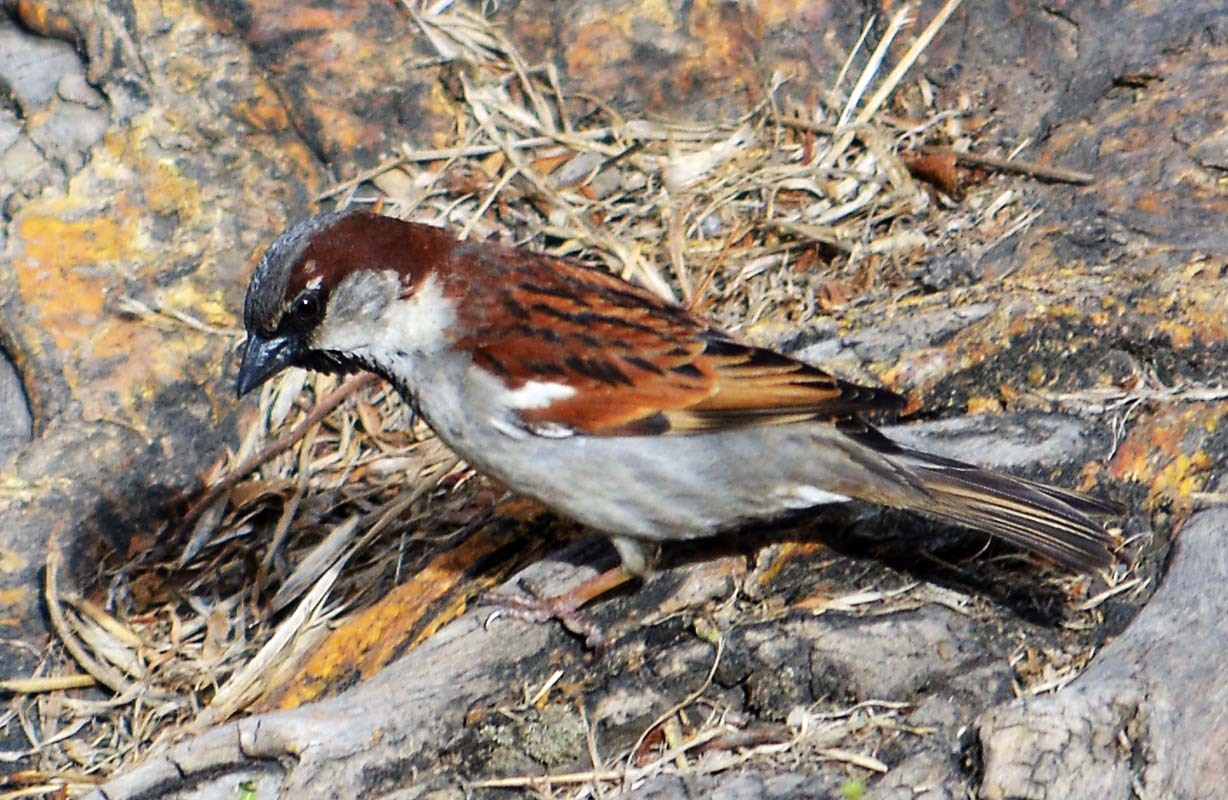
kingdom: Animalia
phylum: Chordata
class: Aves
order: Passeriformes
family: Passeridae
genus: Passer
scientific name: Passer domesticus
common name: House sparrow
